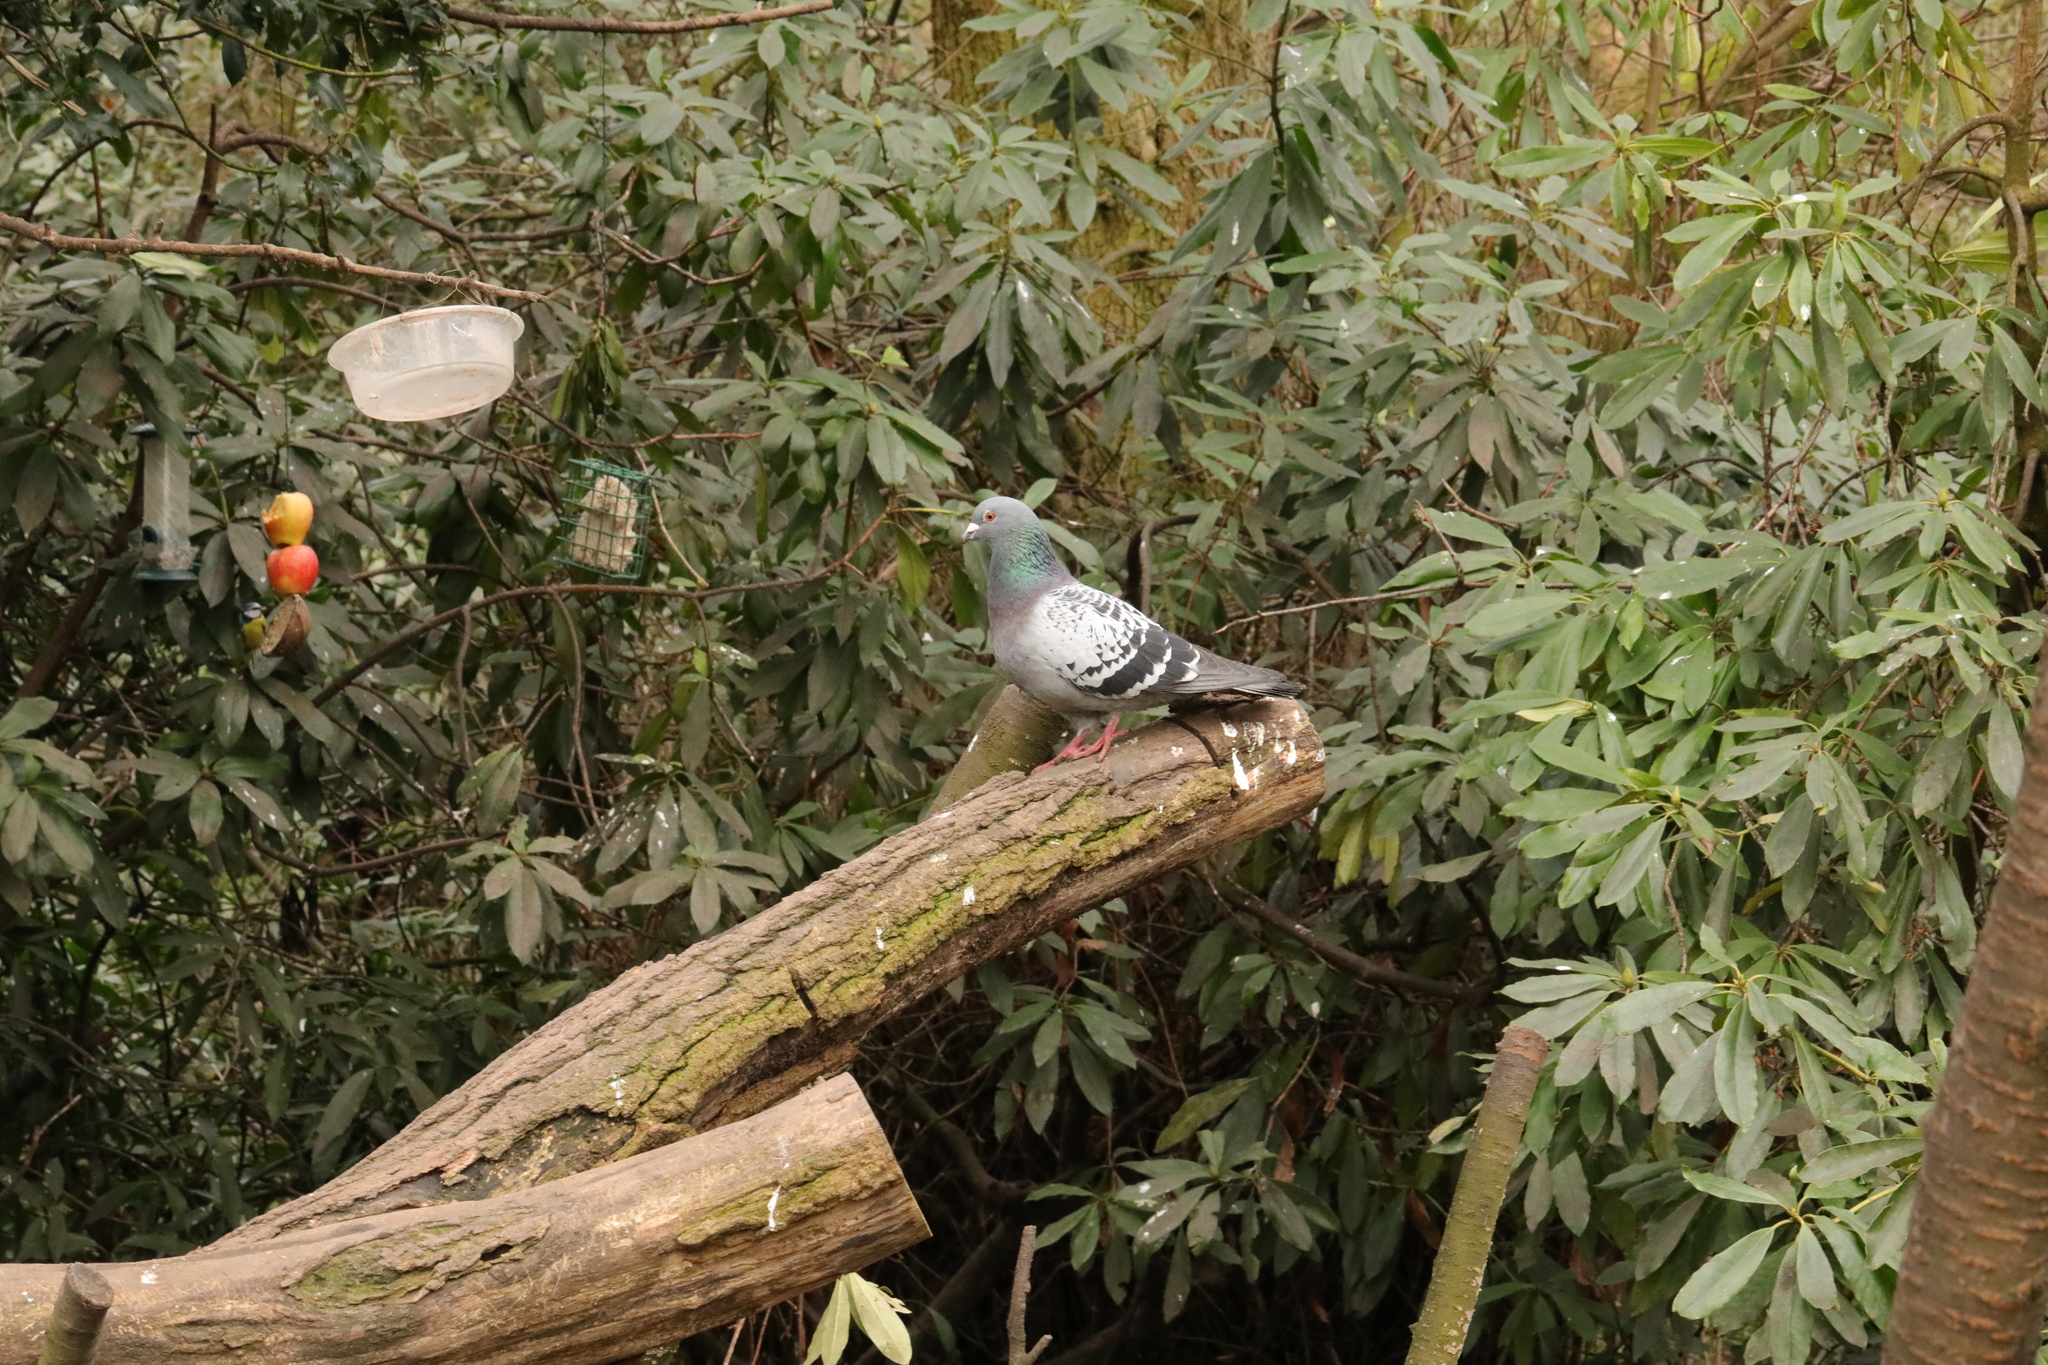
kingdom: Animalia
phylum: Chordata
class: Aves
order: Columbiformes
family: Columbidae
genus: Columba
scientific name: Columba livia
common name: Rock pigeon
